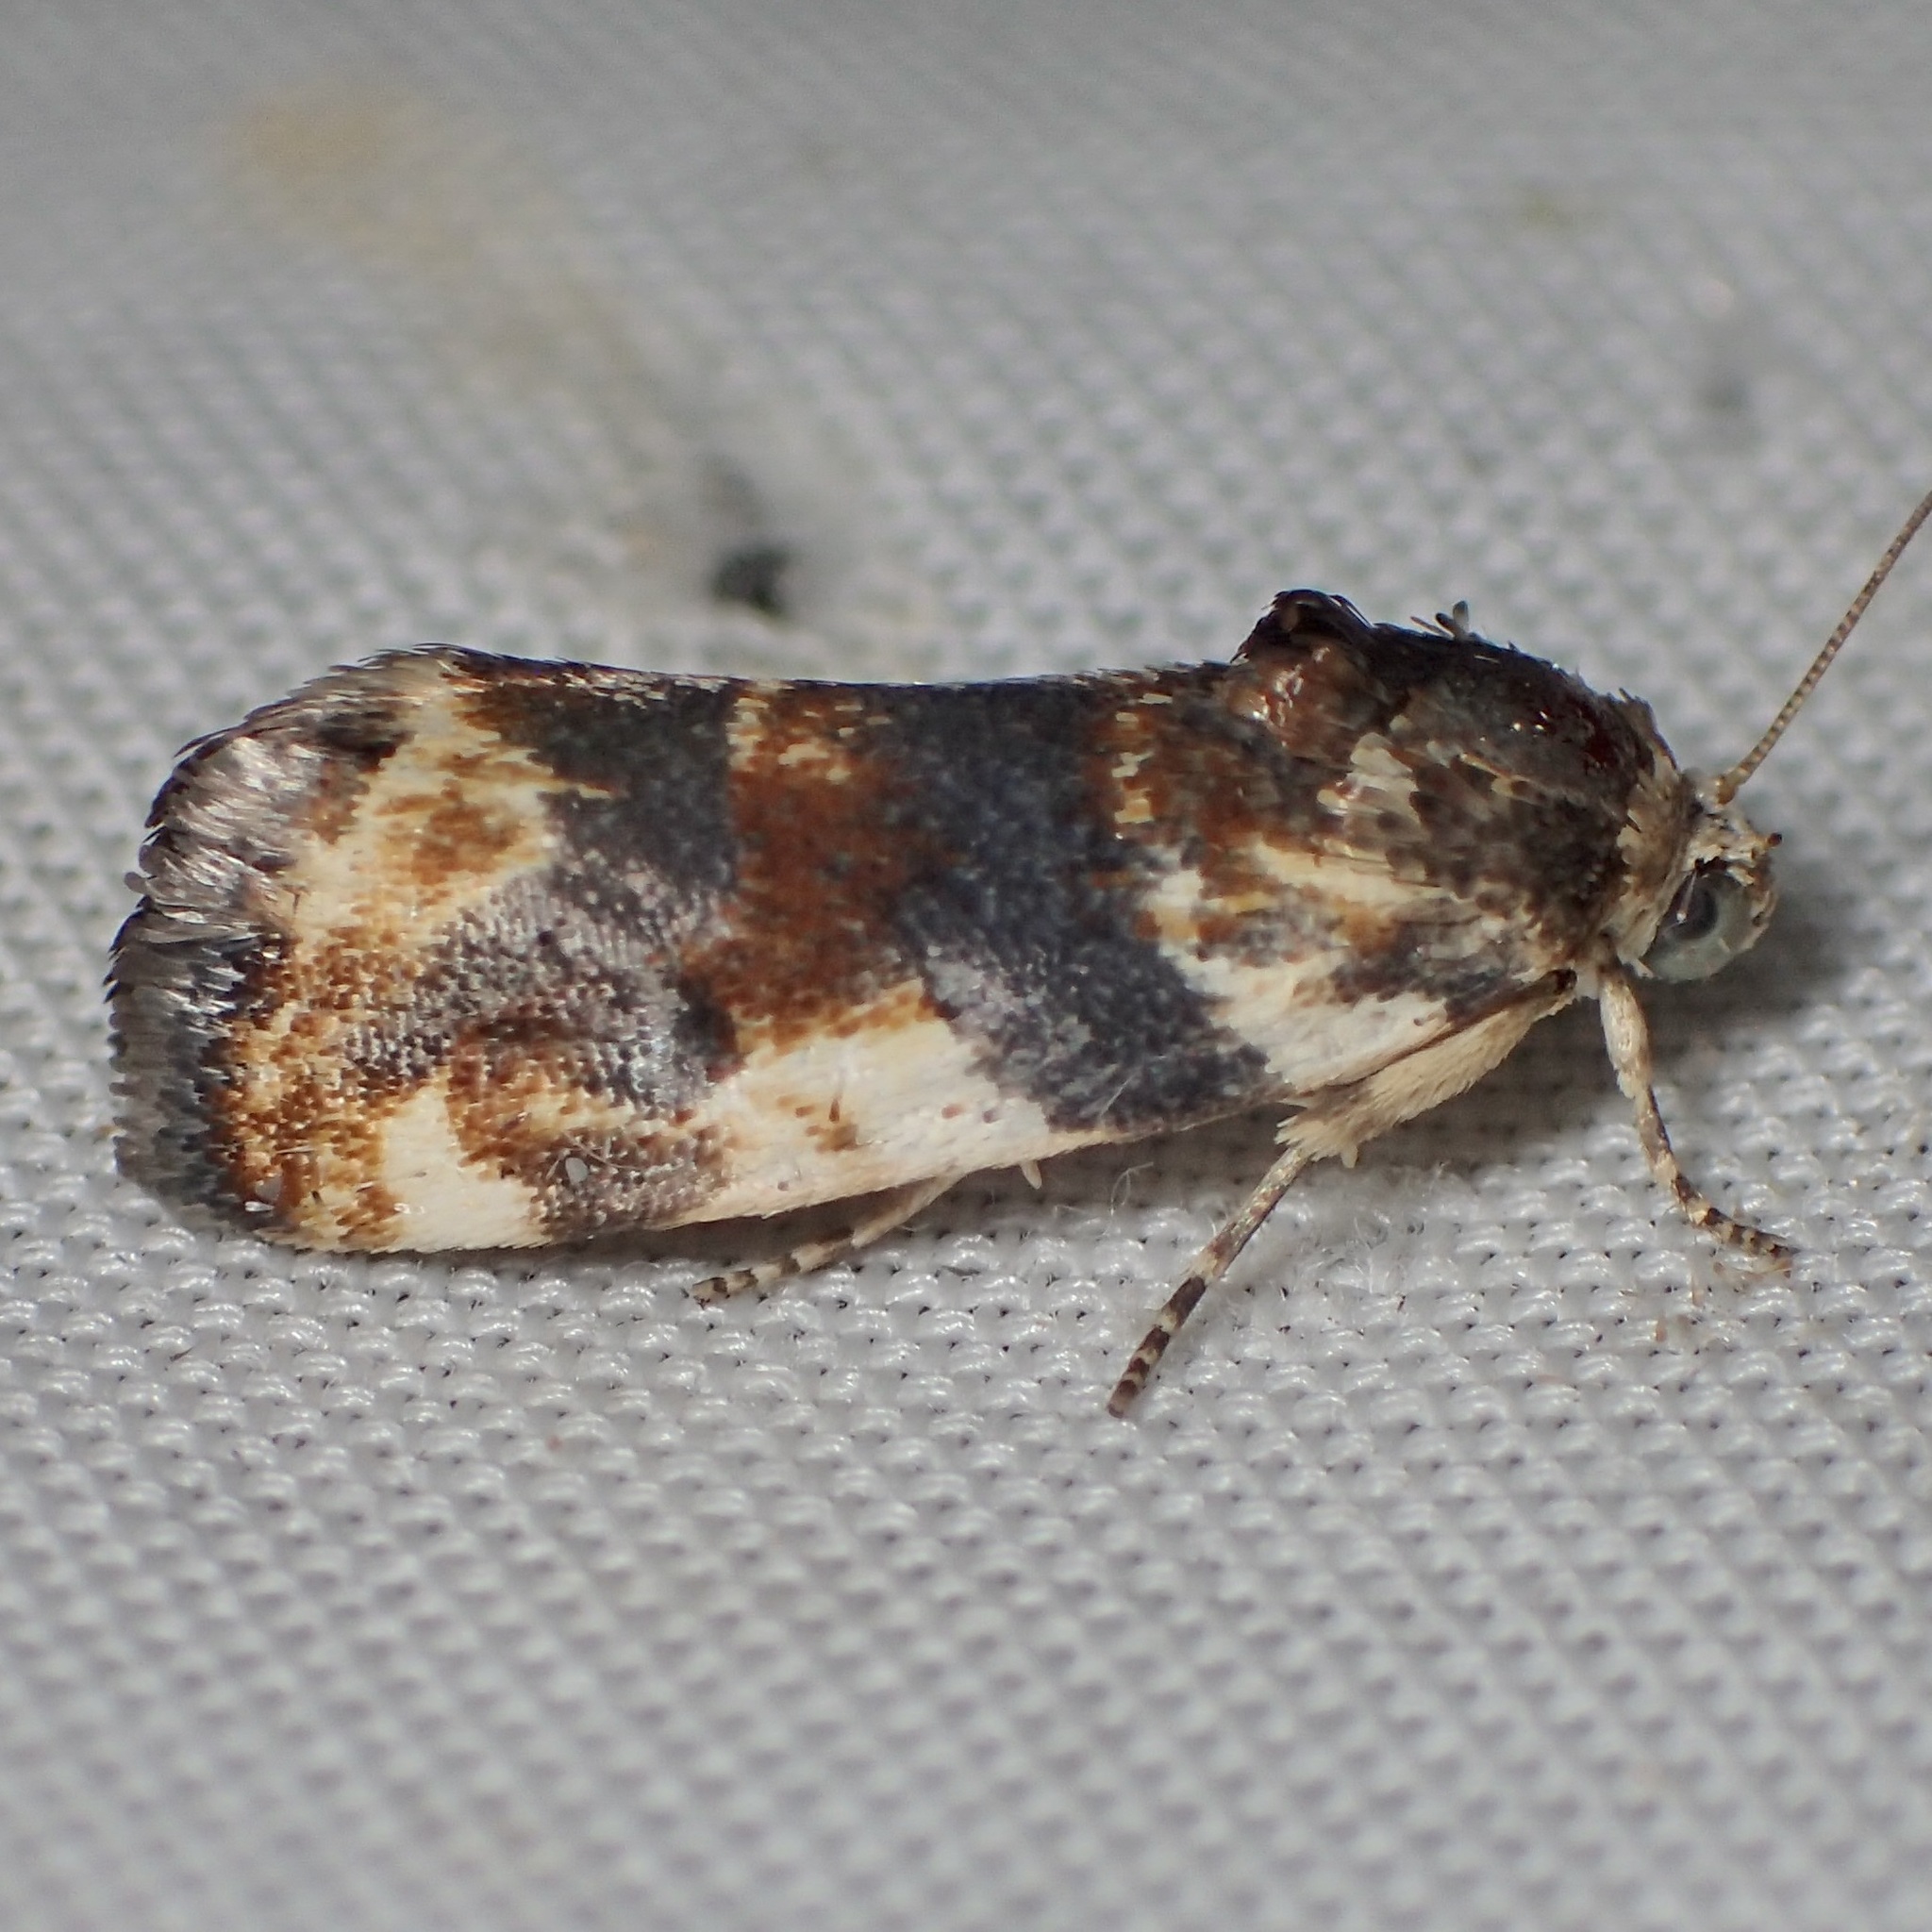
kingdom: Animalia
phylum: Arthropoda
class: Insecta
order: Lepidoptera
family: Noctuidae
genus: Acontia
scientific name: Acontia obatra
